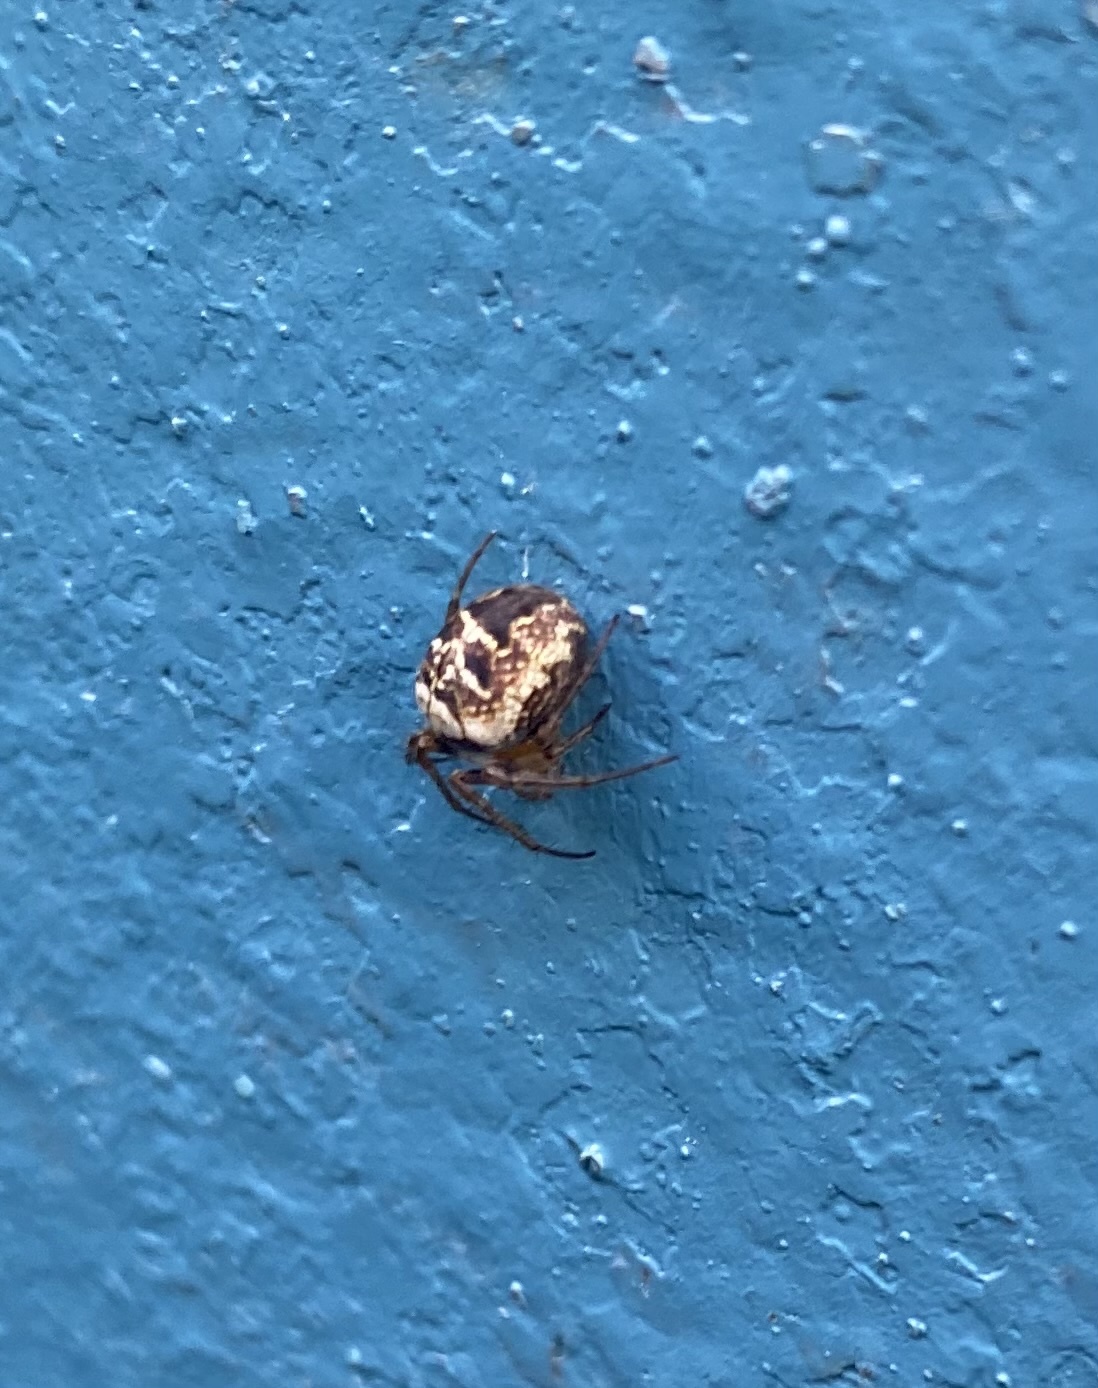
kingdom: Animalia
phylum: Arthropoda
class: Arachnida
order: Araneae
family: Araneidae
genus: Zilla
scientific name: Zilla diodia
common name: Zilla diodia
